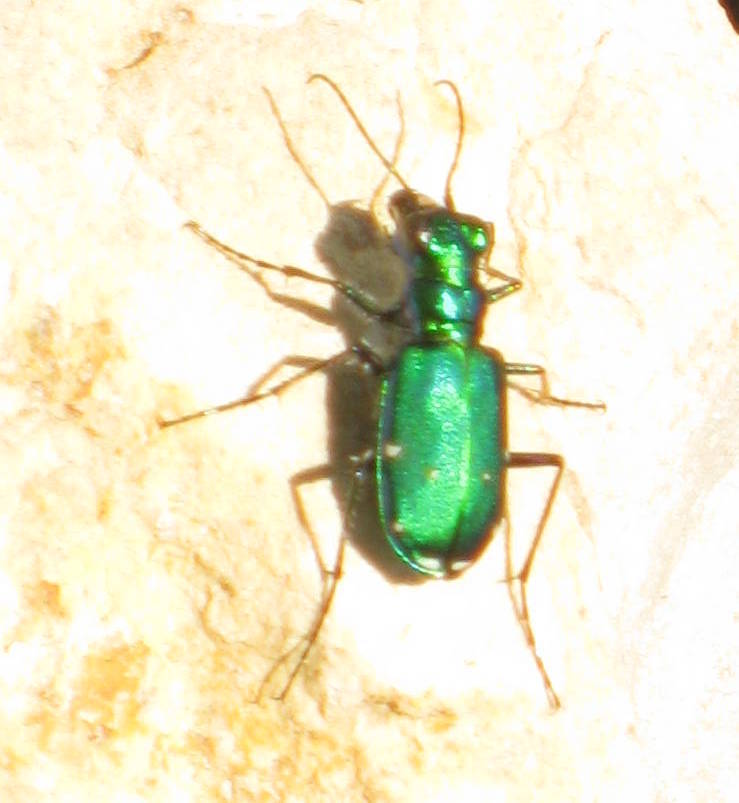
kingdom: Animalia
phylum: Arthropoda
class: Insecta
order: Coleoptera
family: Carabidae
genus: Cicindela
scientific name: Cicindela sexguttata
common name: Six-spotted tiger beetle
